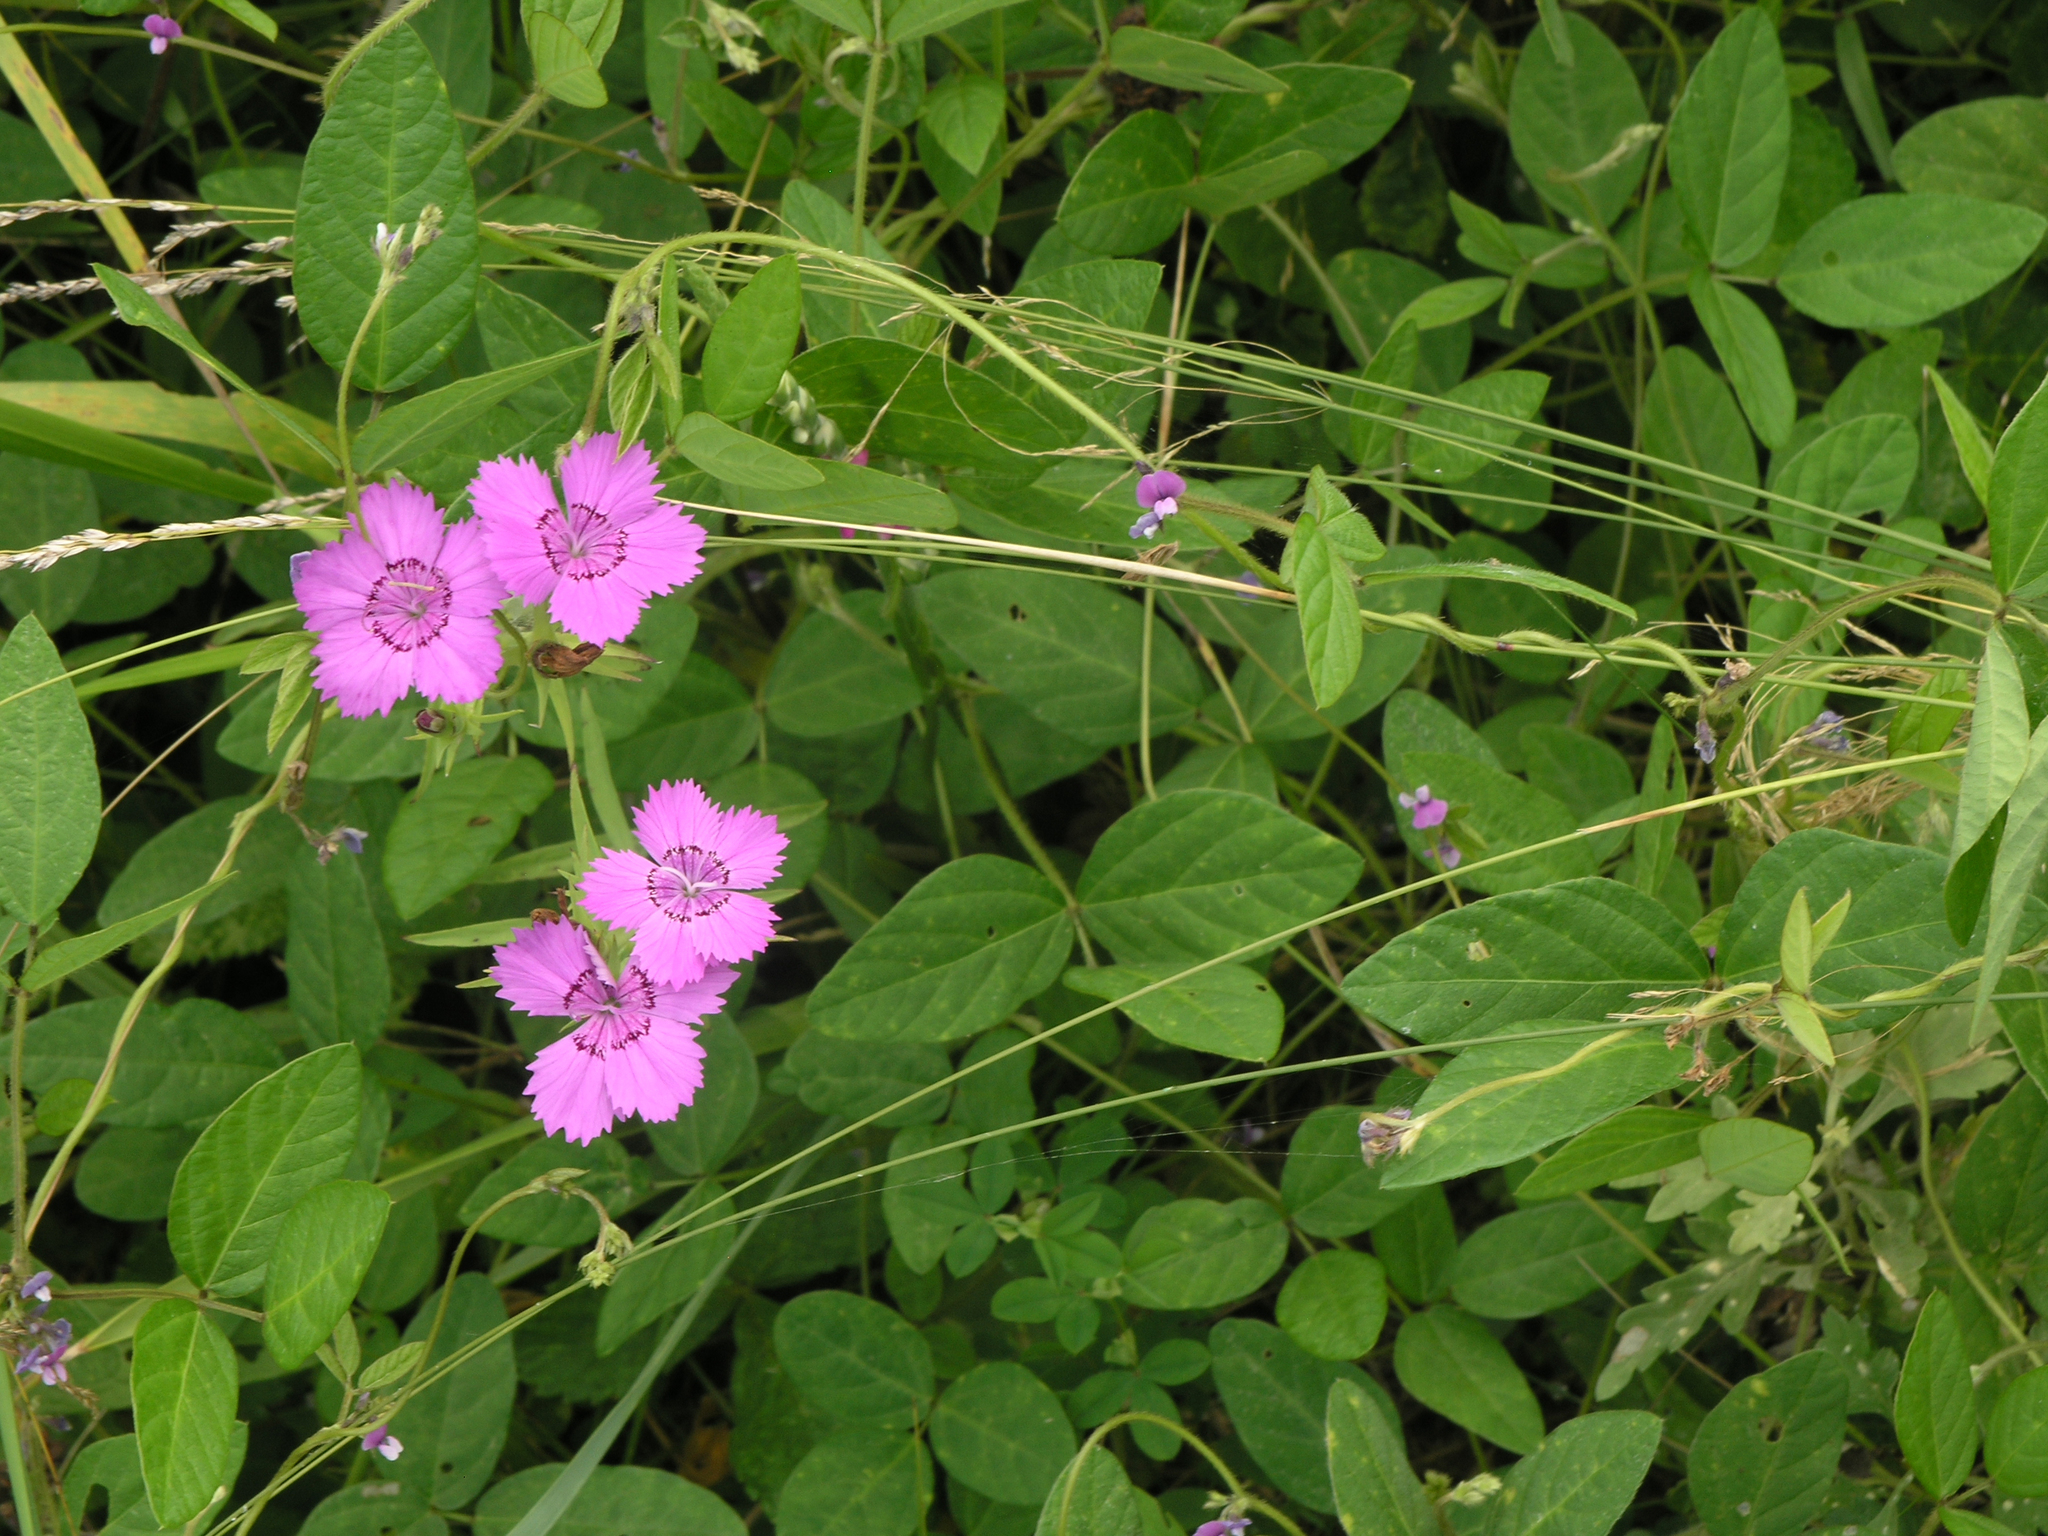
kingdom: Plantae
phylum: Tracheophyta
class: Magnoliopsida
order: Fabales
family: Fabaceae
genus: Glycine
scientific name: Glycine max
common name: Soya-bean
